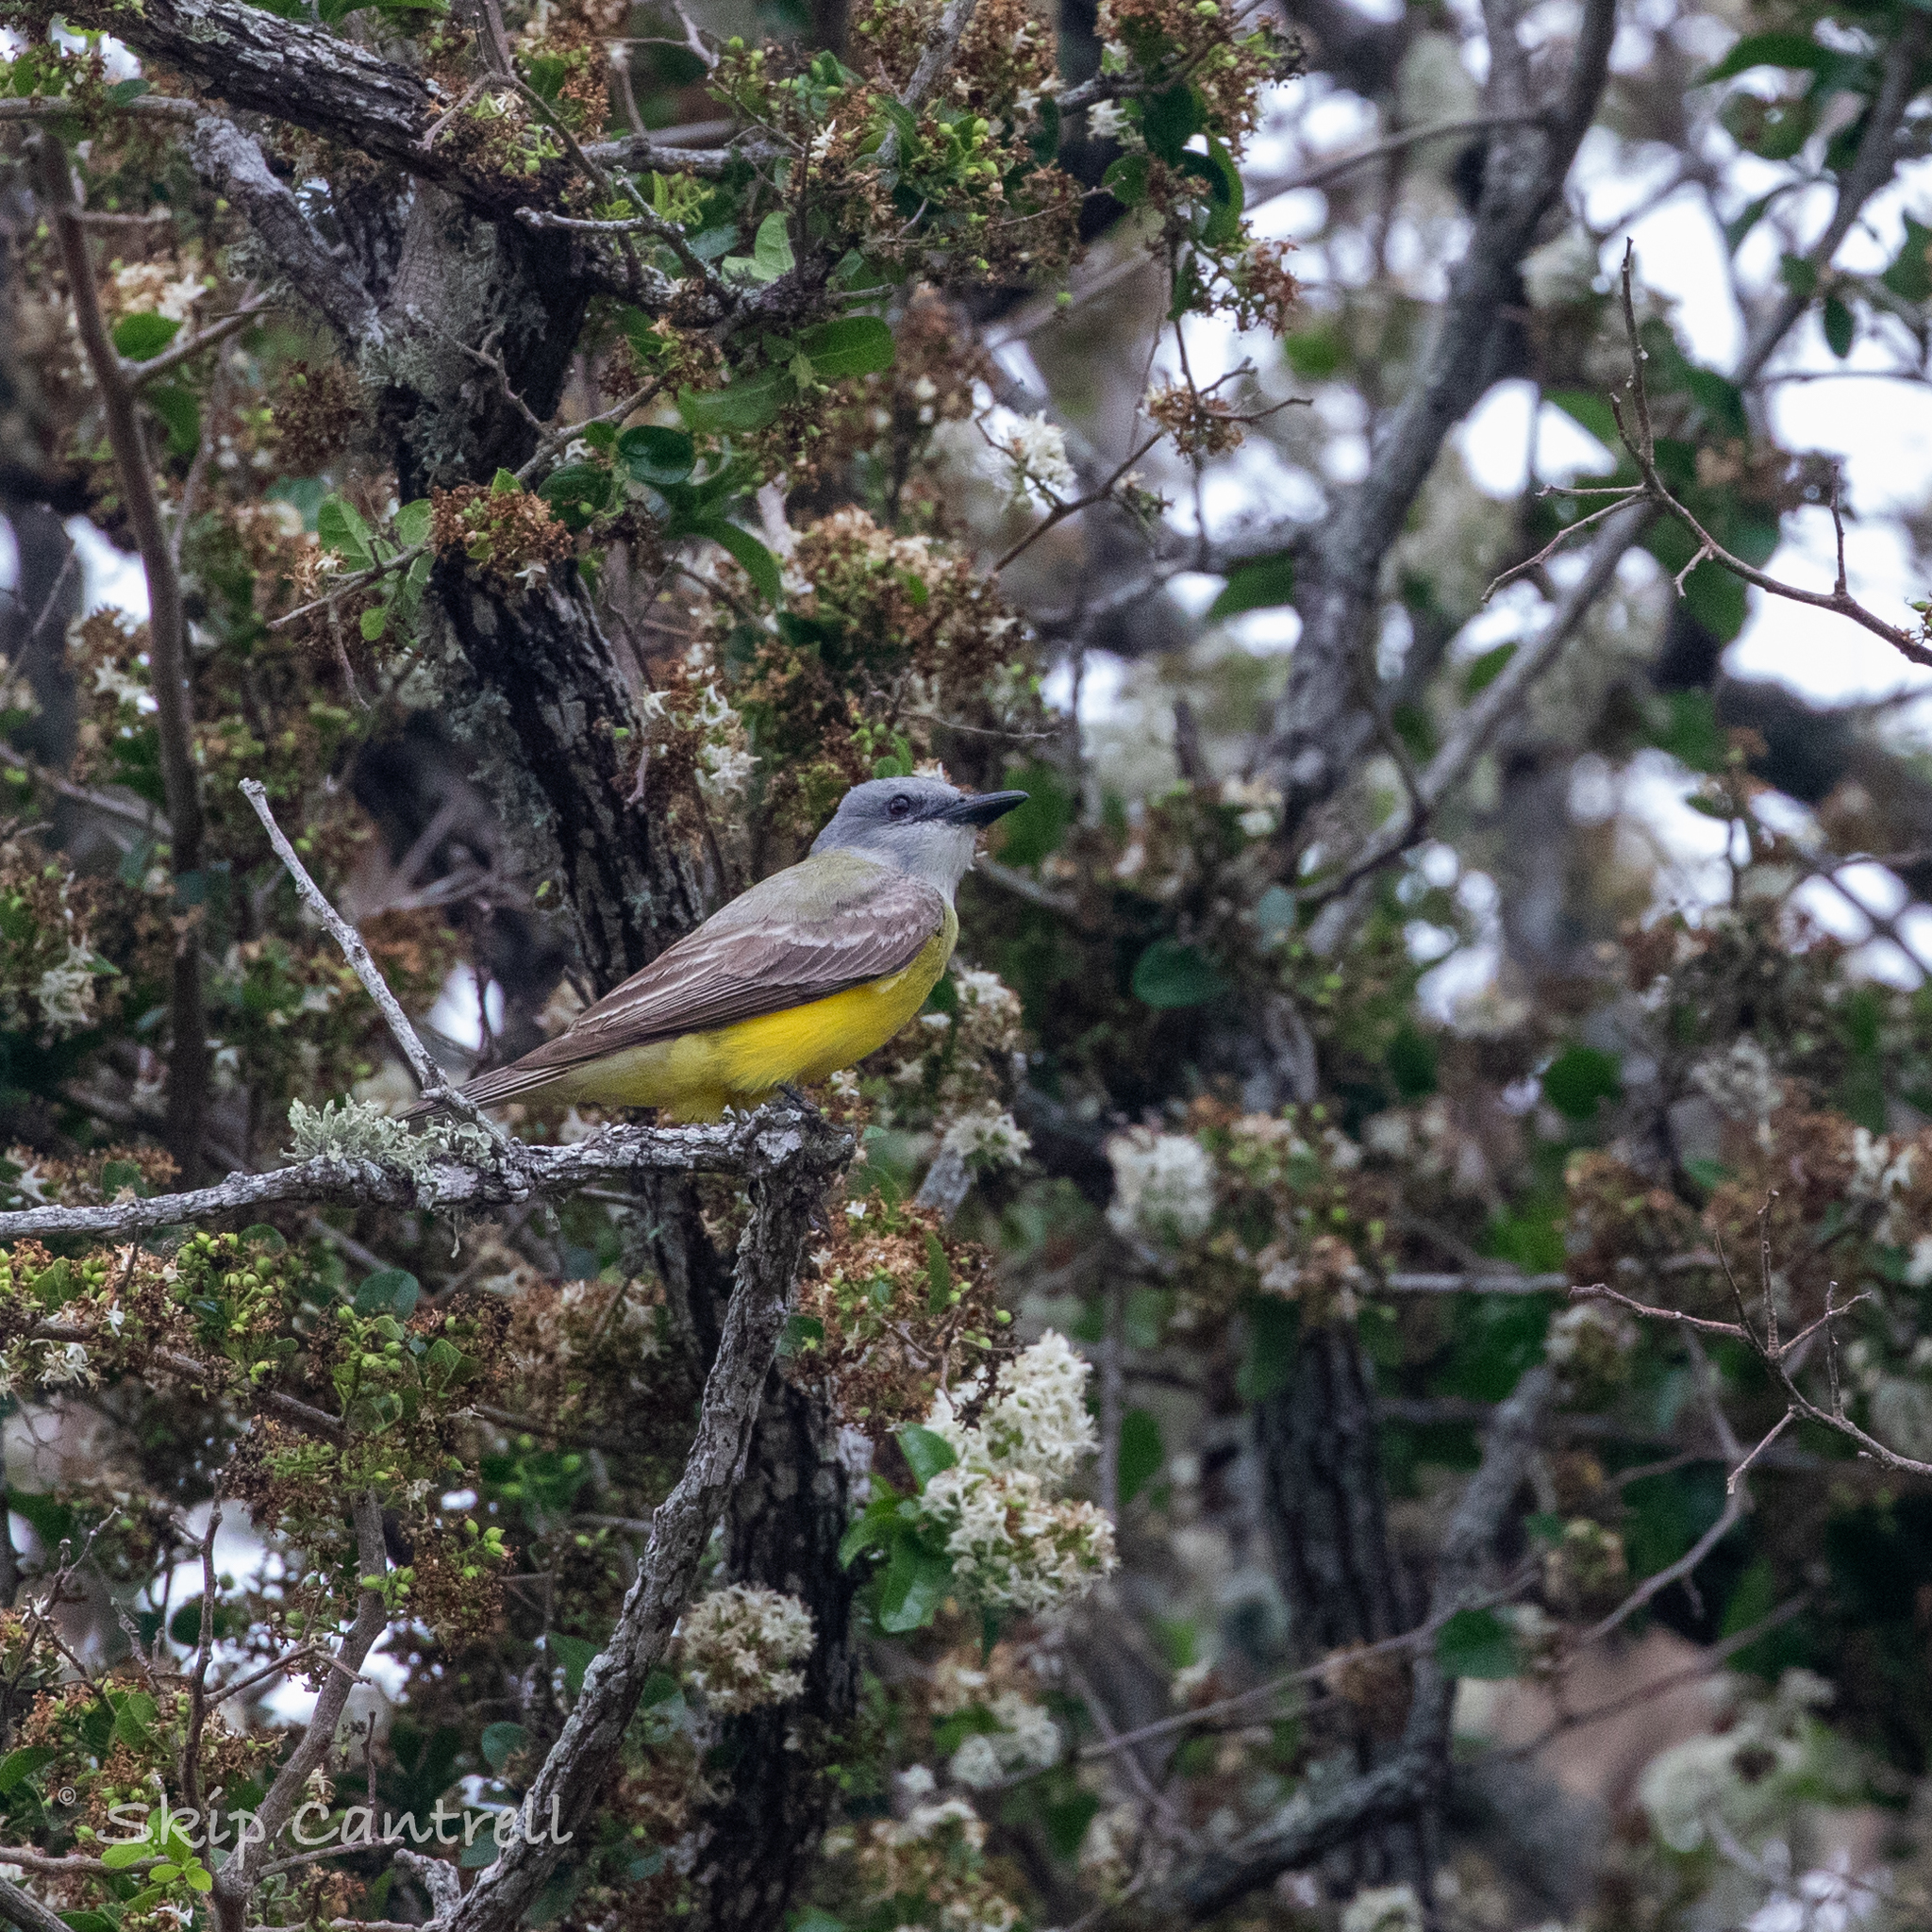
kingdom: Animalia
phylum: Chordata
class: Aves
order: Passeriformes
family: Tyrannidae
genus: Tyrannus
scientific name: Tyrannus couchii
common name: Couch's kingbird
